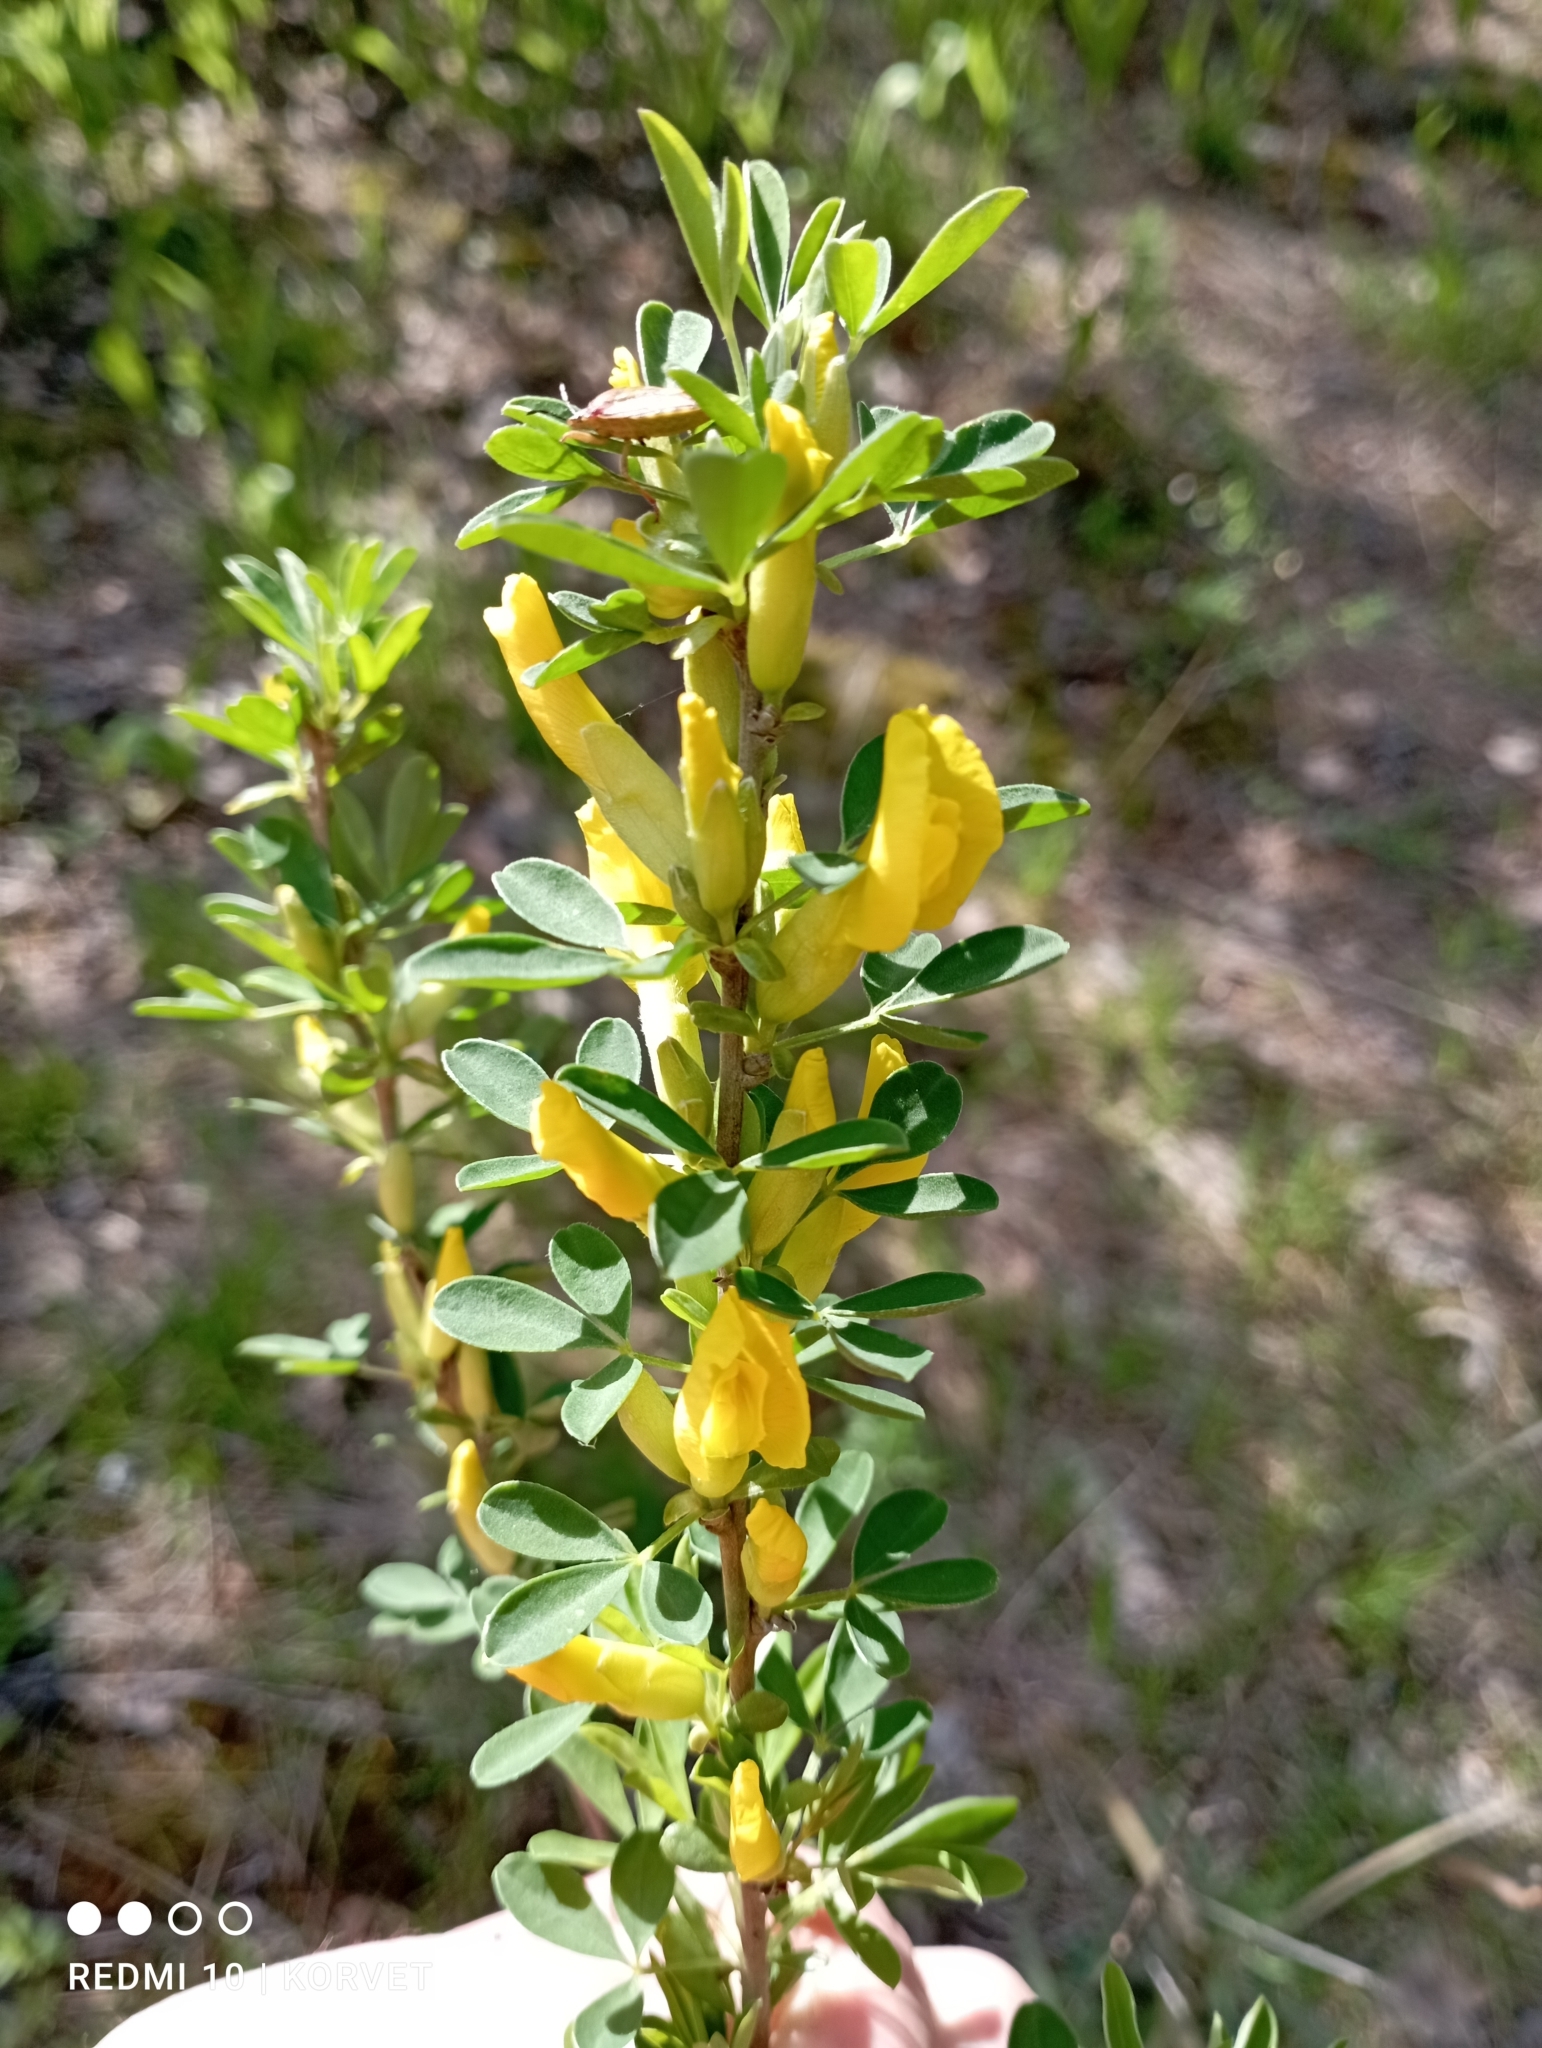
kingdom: Plantae
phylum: Tracheophyta
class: Magnoliopsida
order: Fabales
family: Fabaceae
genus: Chamaecytisus
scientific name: Chamaecytisus ruthenicus
